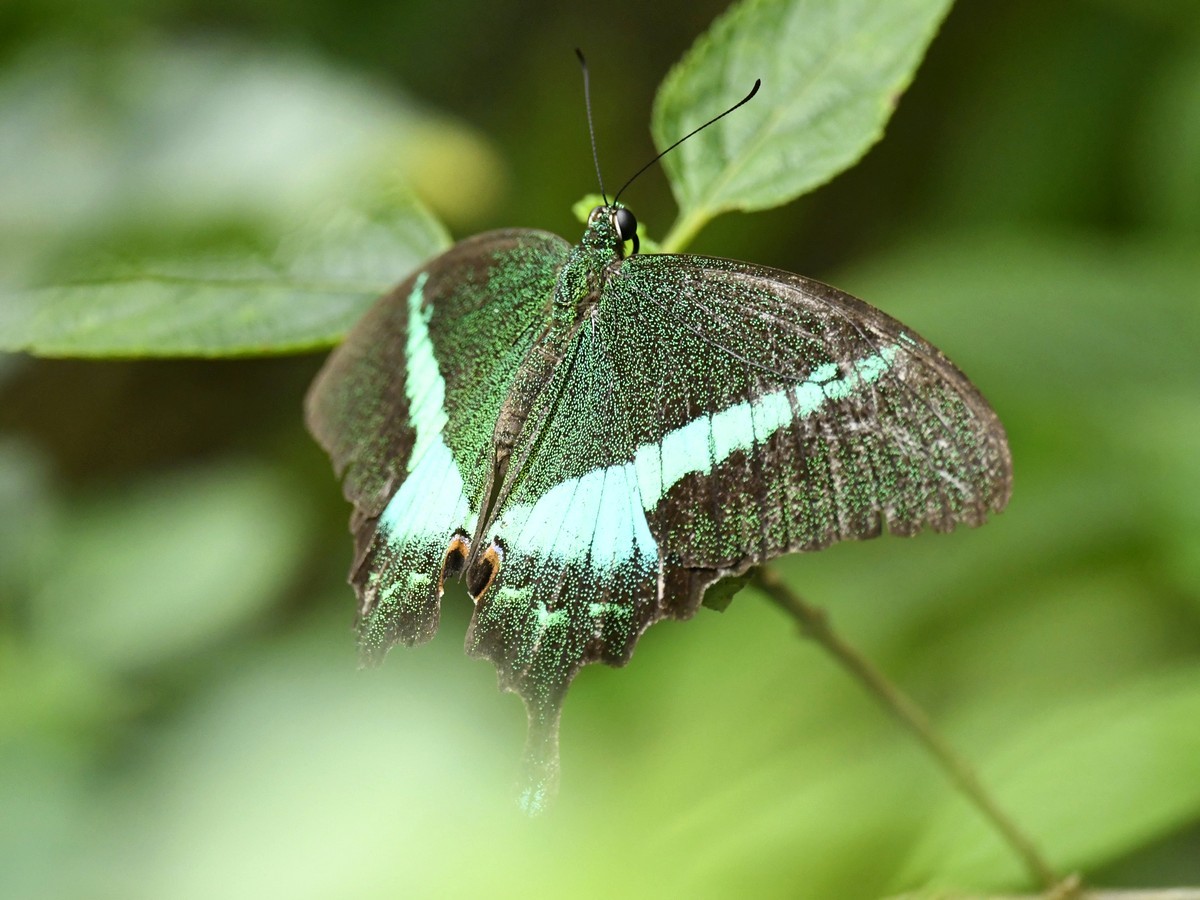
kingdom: Animalia
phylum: Arthropoda
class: Insecta
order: Lepidoptera
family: Papilionidae
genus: Papilio
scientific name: Papilio crino
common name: Common banded peacock
